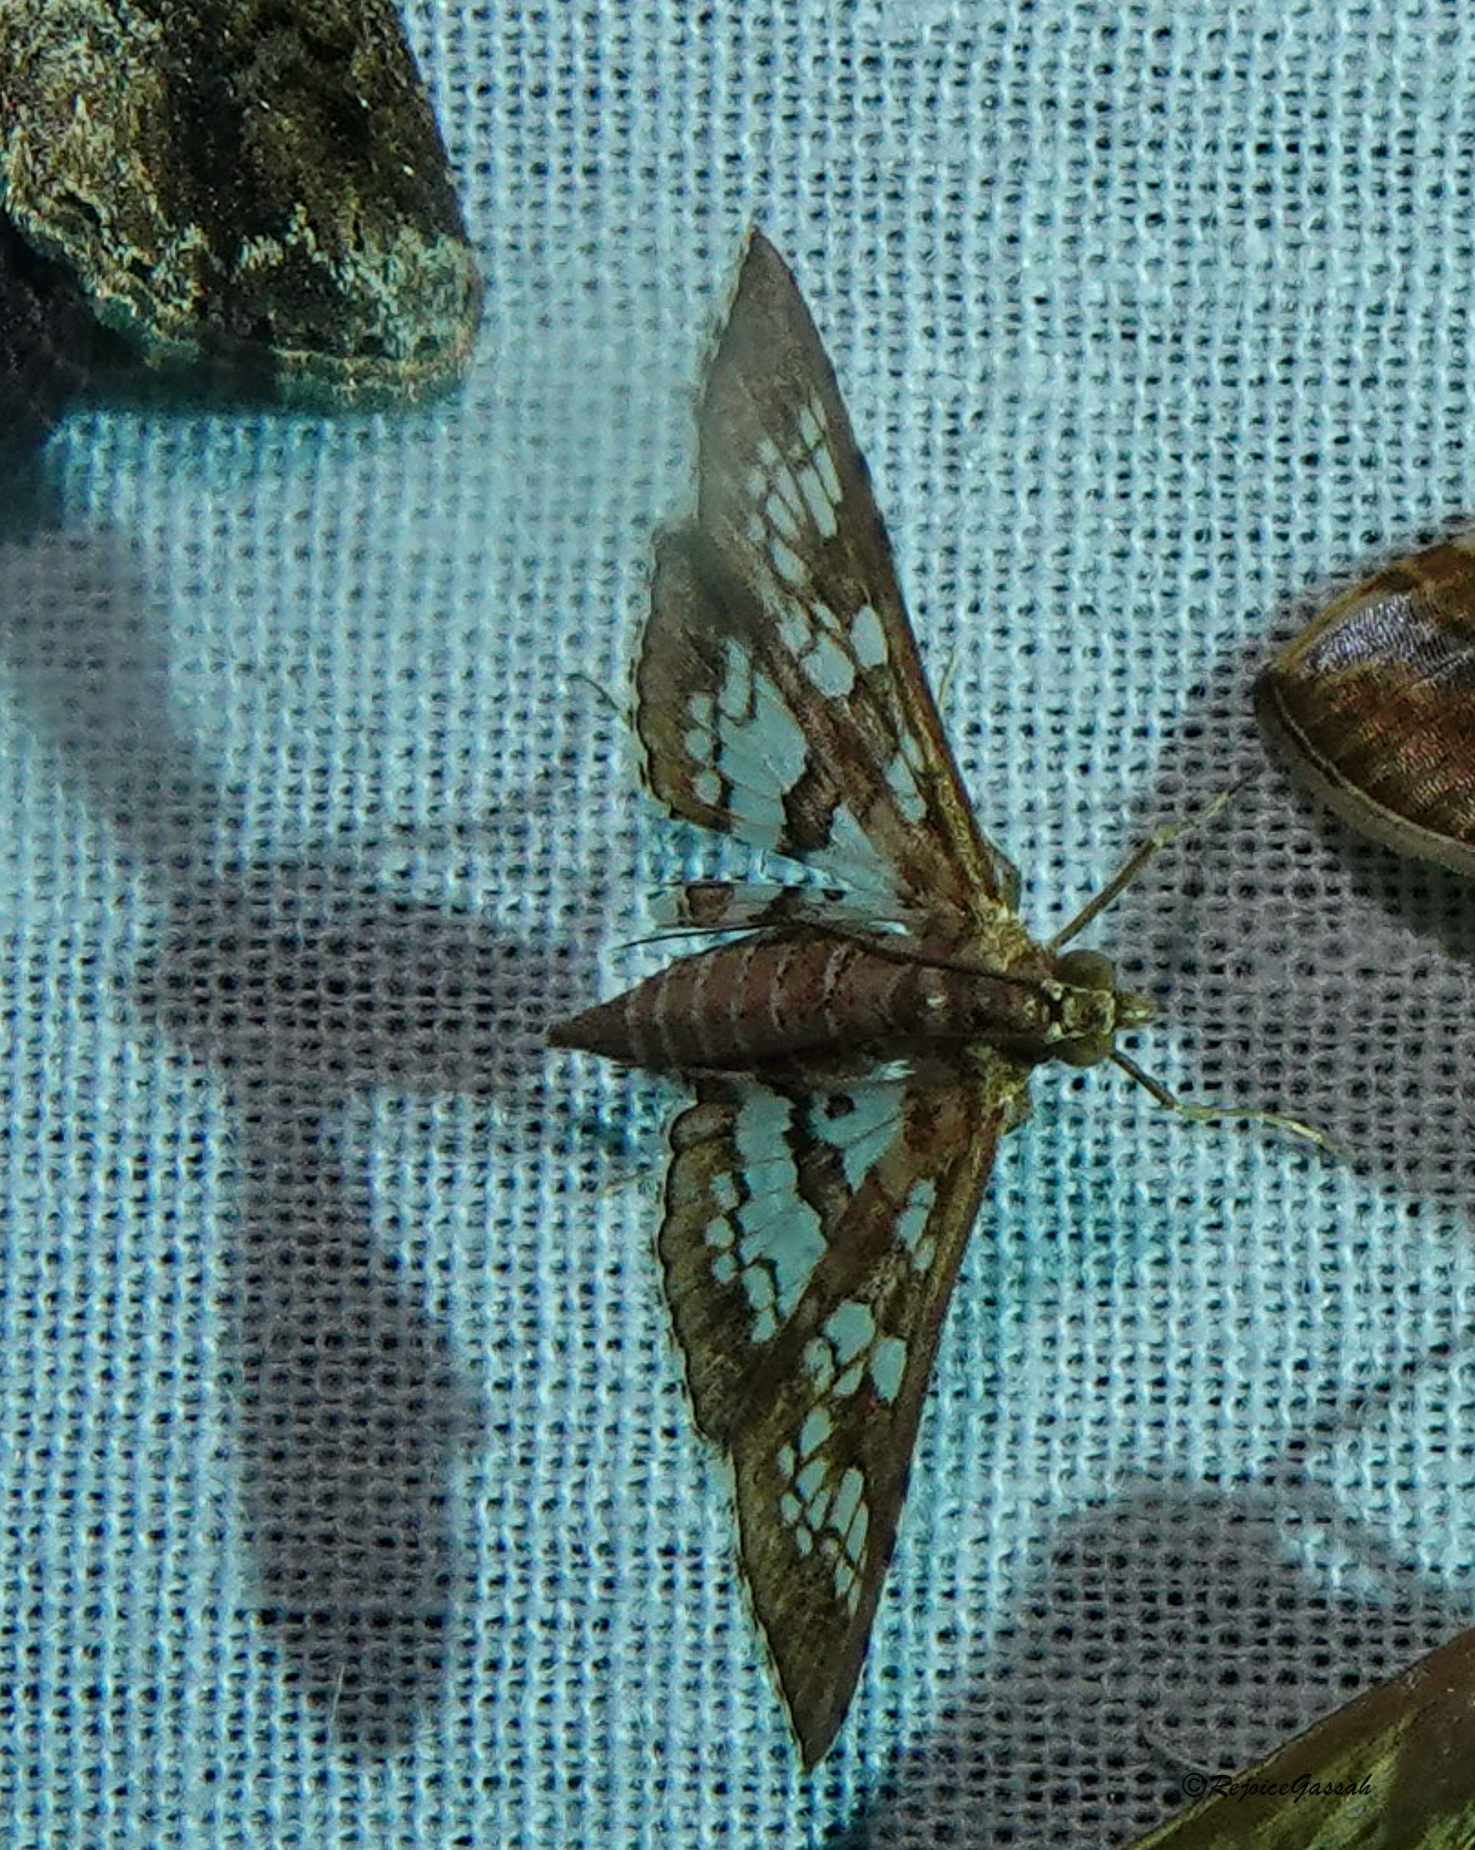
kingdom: Animalia
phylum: Arthropoda
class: Insecta
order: Lepidoptera
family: Crambidae
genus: Sameodes
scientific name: Sameodes cancellalis
